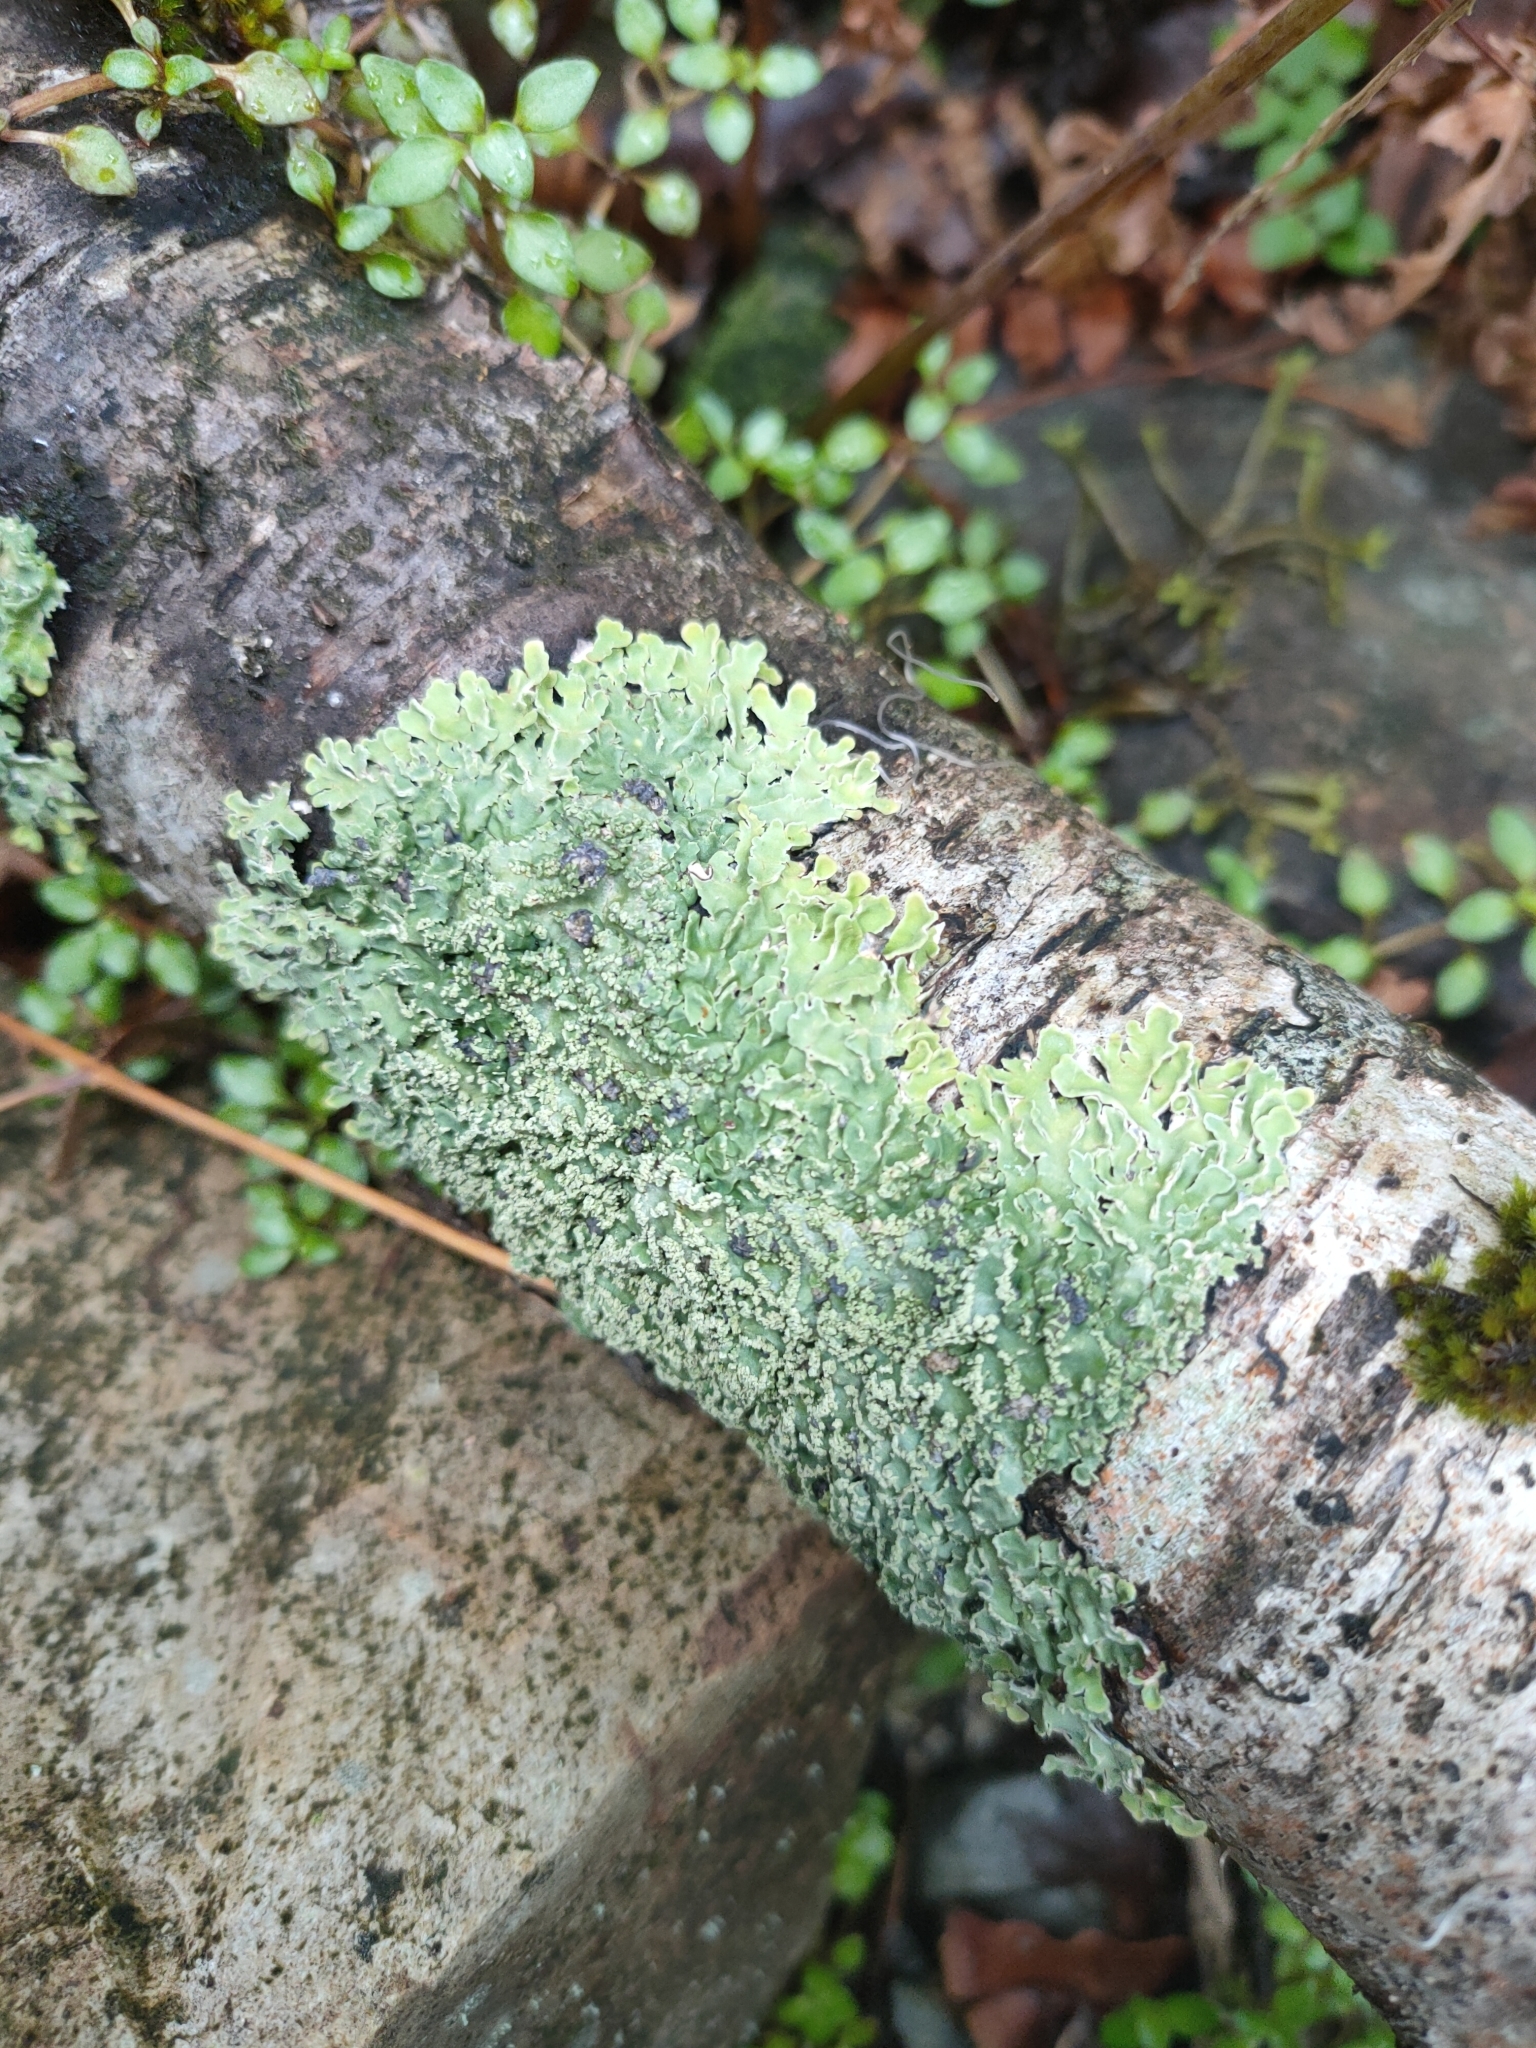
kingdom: Fungi
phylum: Ascomycota
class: Lecanoromycetes
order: Peltigerales
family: Pannariaceae
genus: Pannaria
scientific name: Pannaria leproloma
